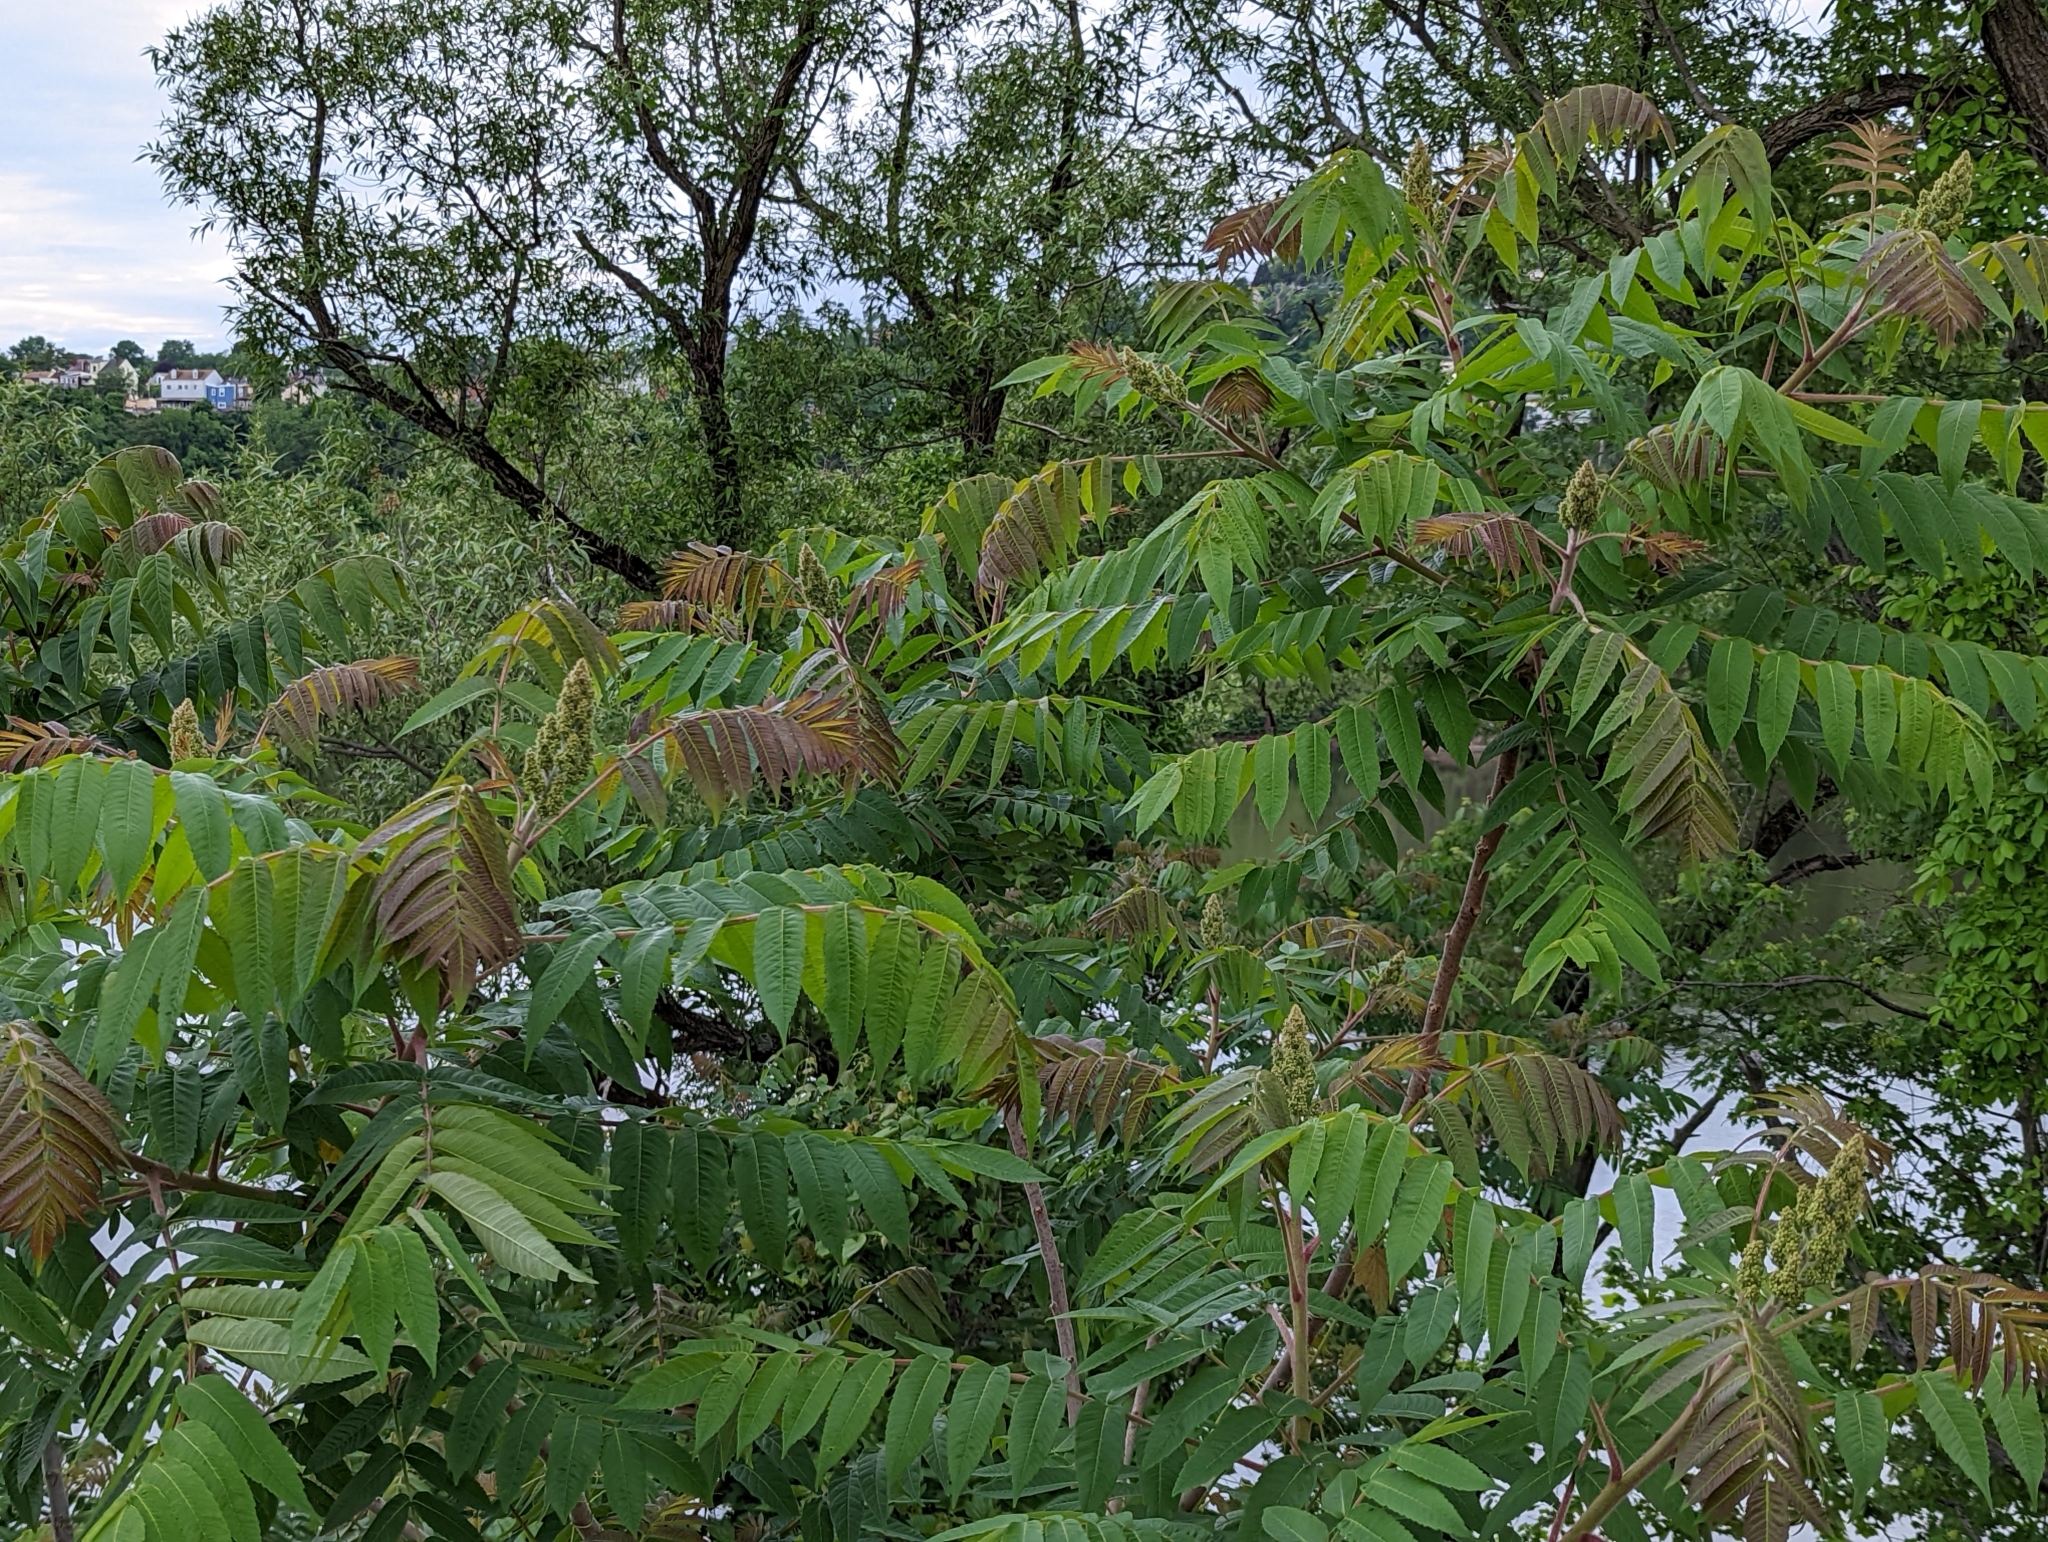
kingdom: Plantae
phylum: Tracheophyta
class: Magnoliopsida
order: Sapindales
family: Anacardiaceae
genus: Rhus
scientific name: Rhus typhina
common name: Staghorn sumac
